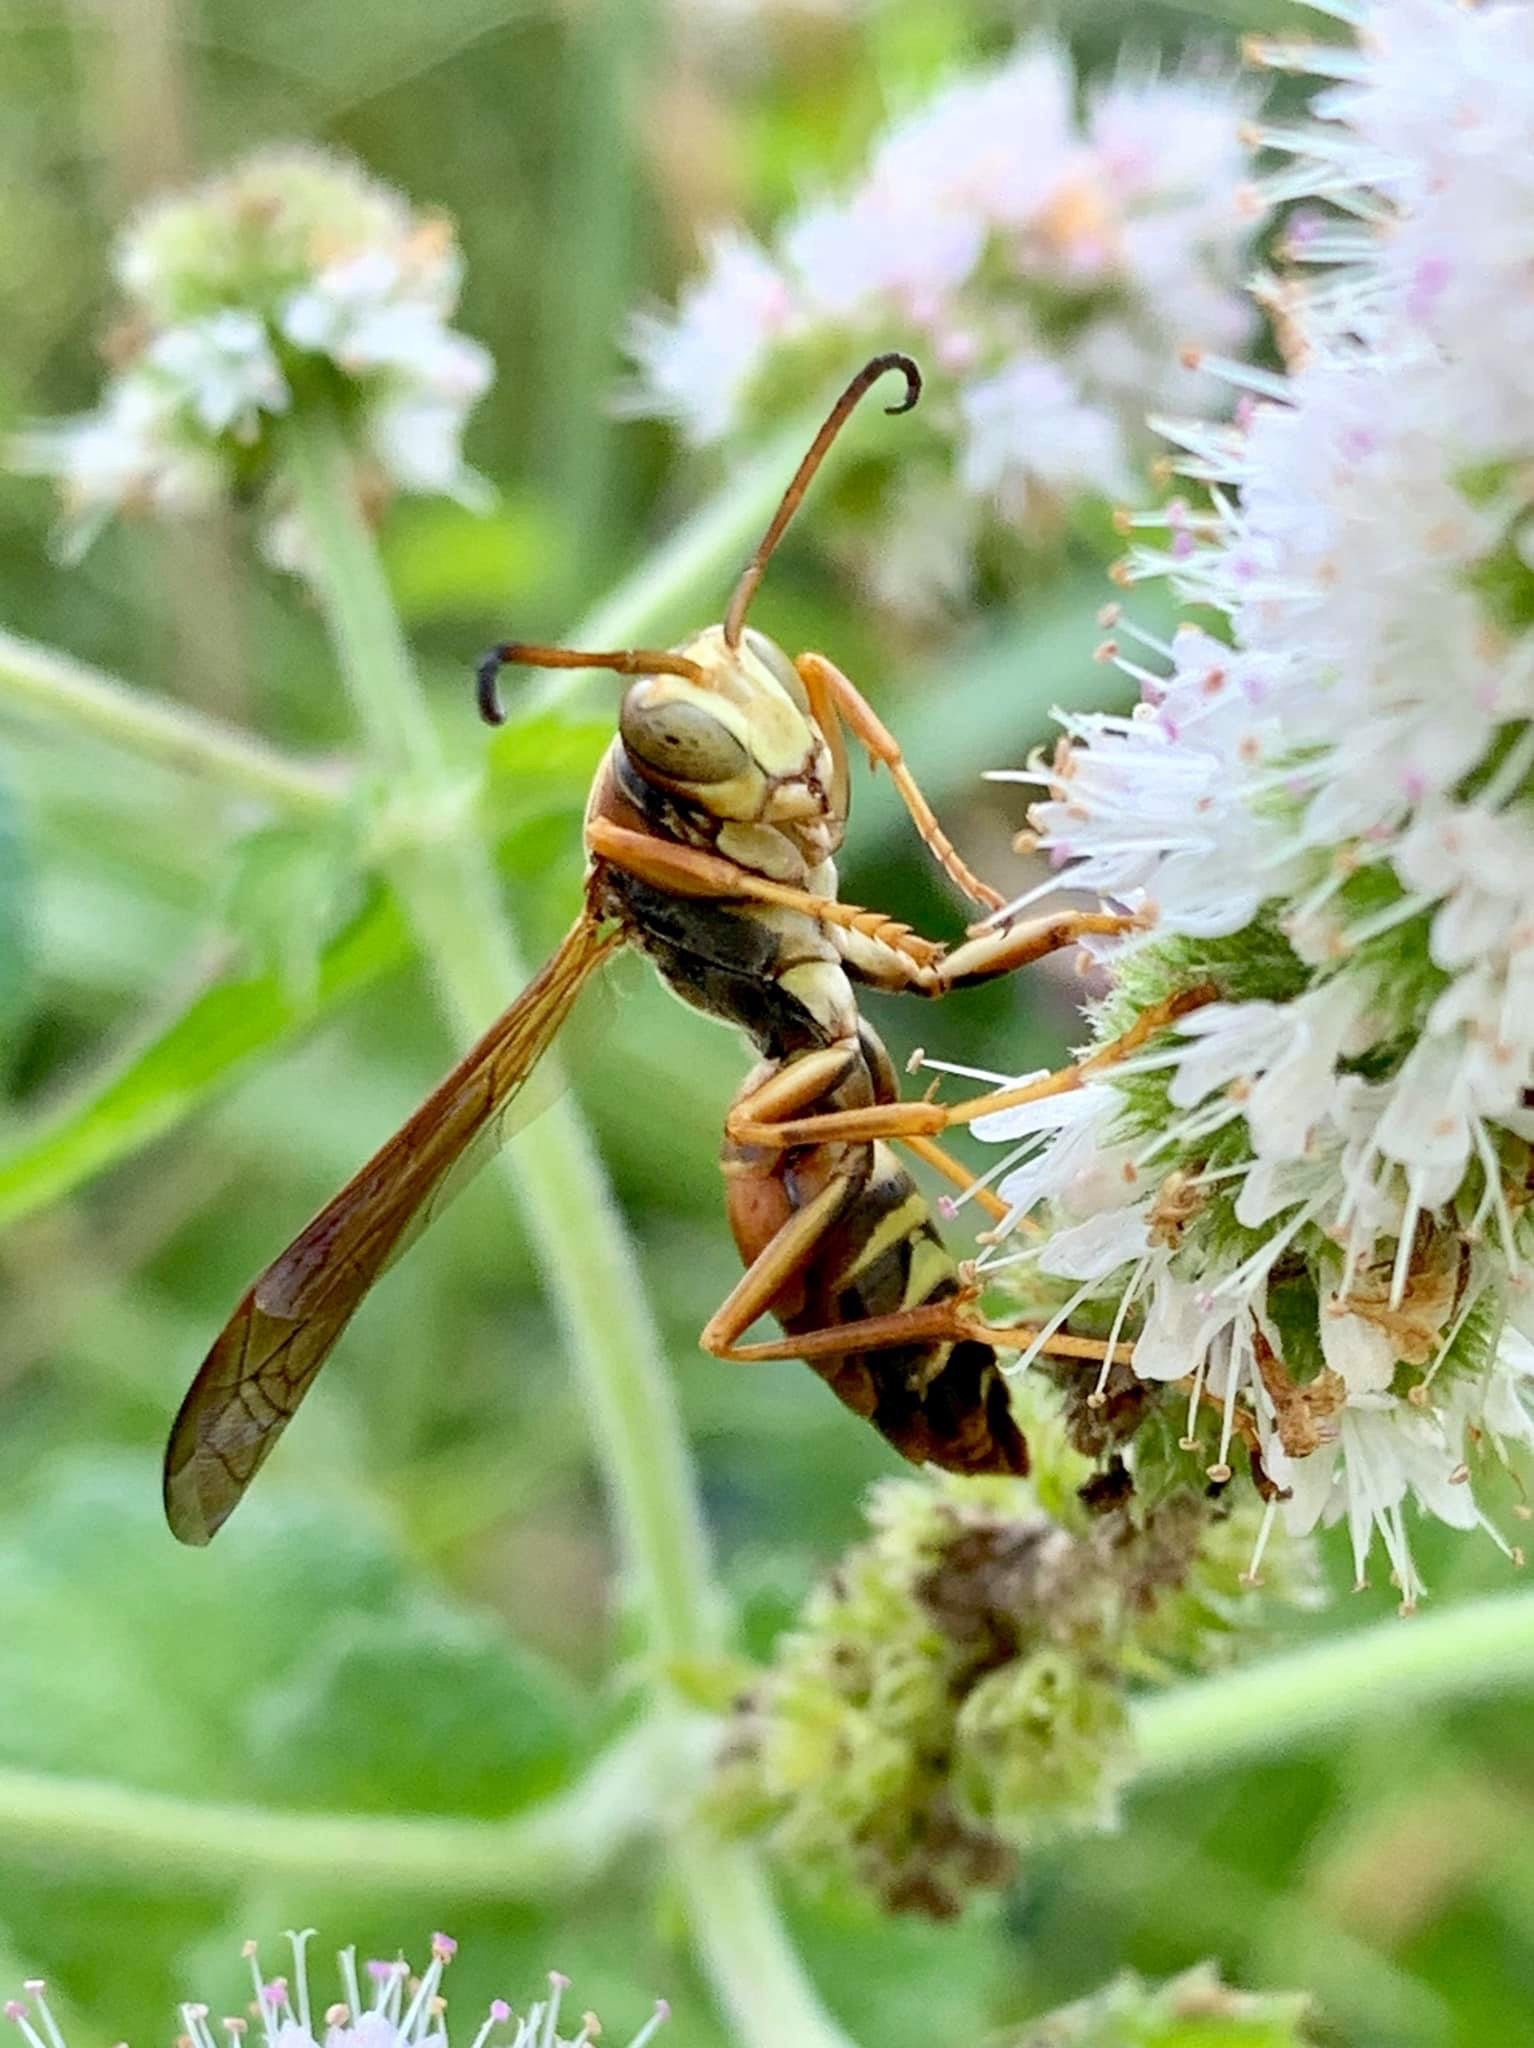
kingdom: Animalia
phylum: Arthropoda
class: Insecta
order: Hymenoptera
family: Eumenidae
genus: Polistes
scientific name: Polistes fuscatus
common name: Dark paper wasp
